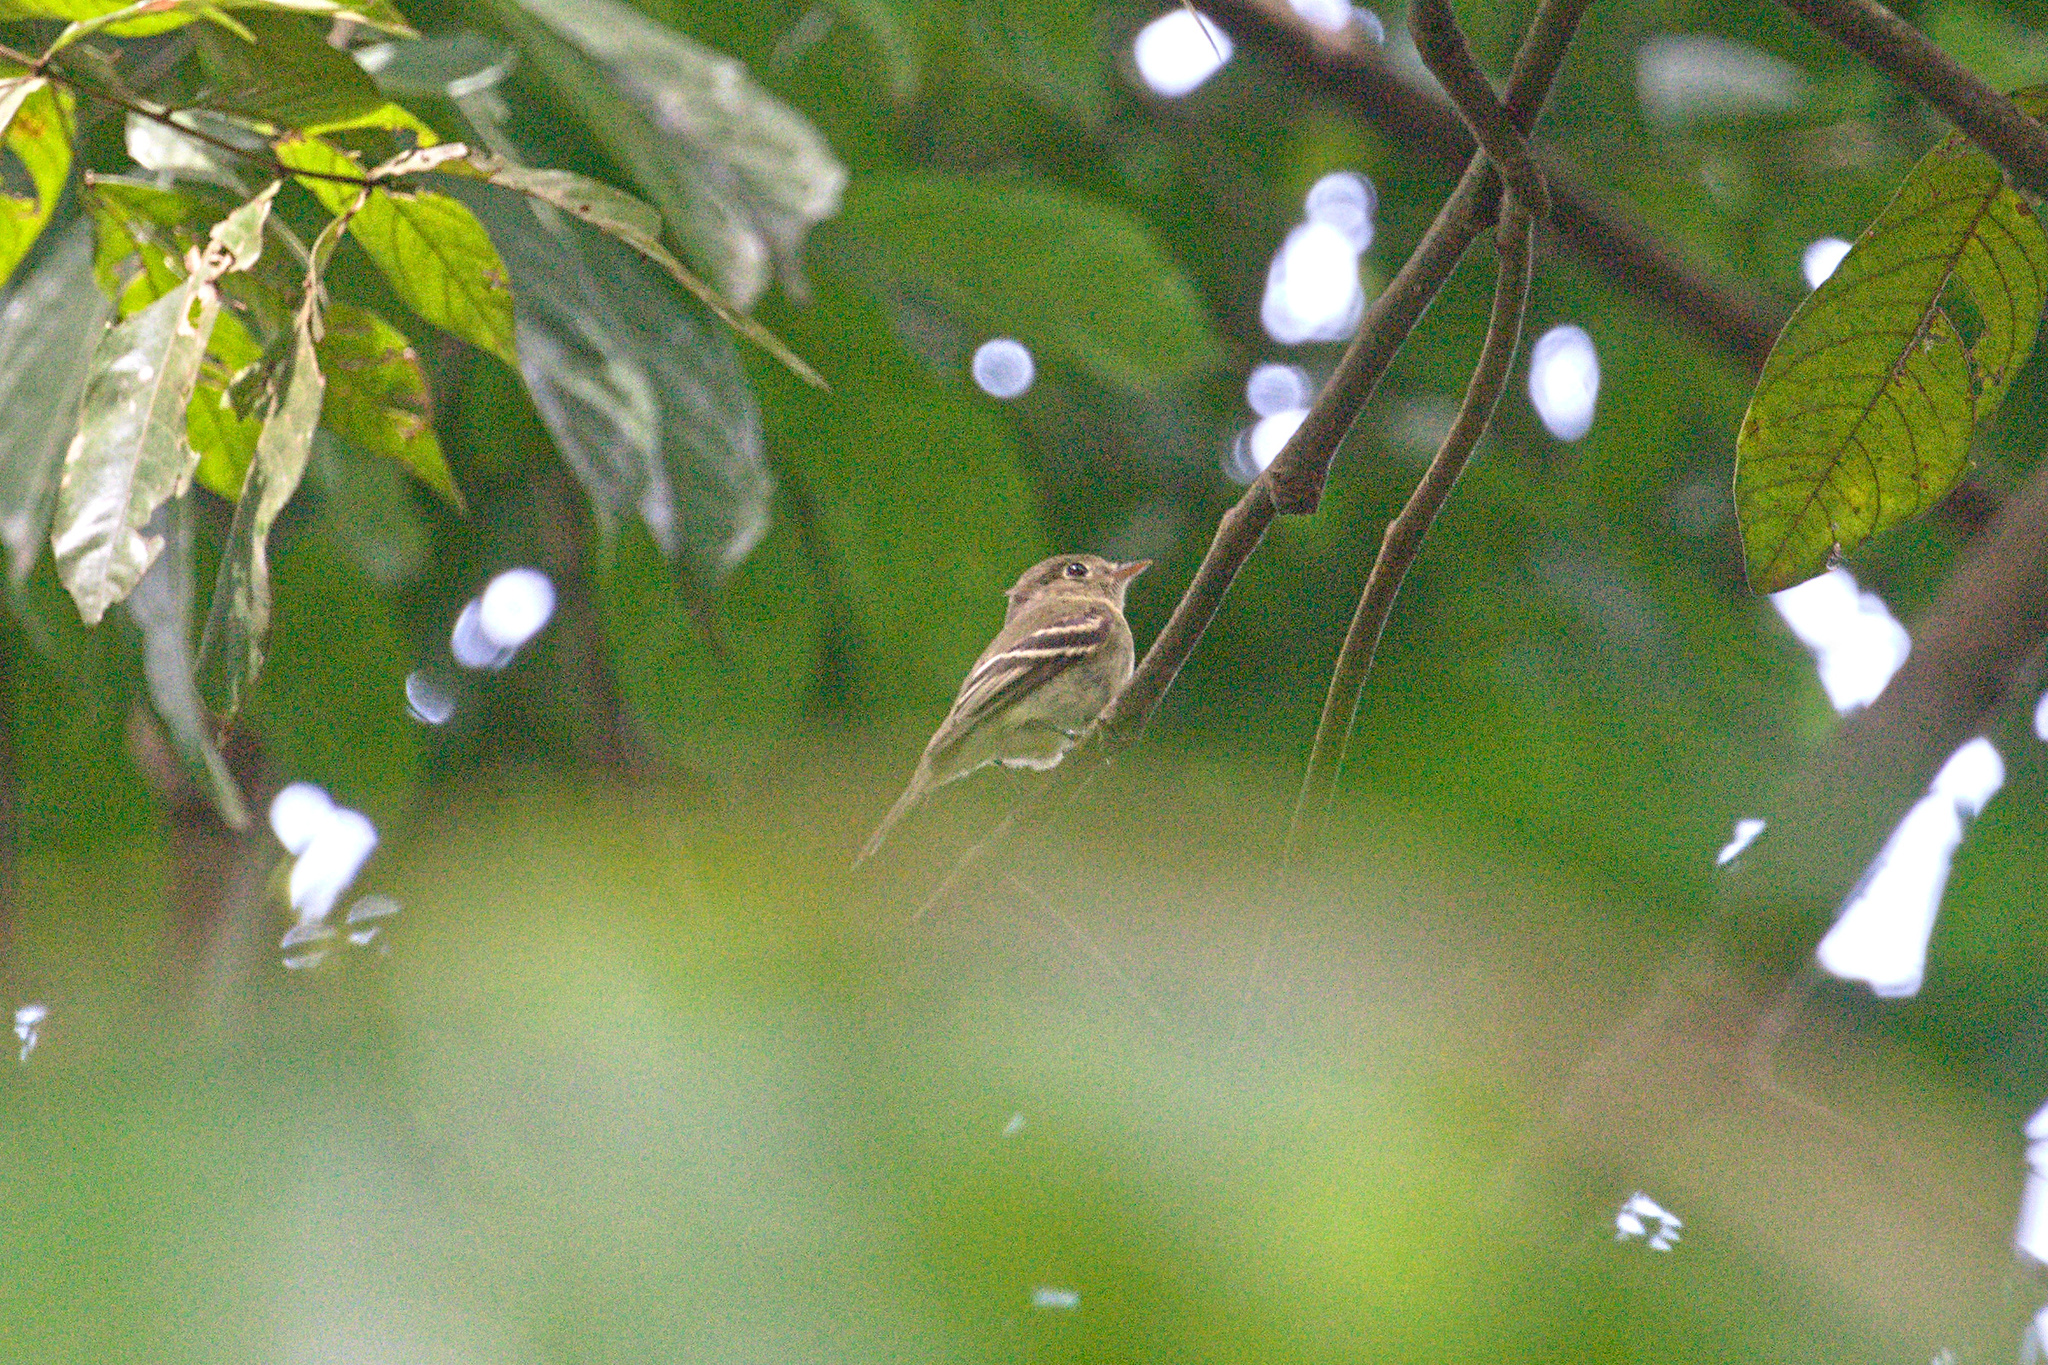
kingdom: Animalia
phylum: Chordata
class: Aves
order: Passeriformes
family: Tyrannidae
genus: Empidonax
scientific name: Empidonax virescens
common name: Acadian flycatcher
